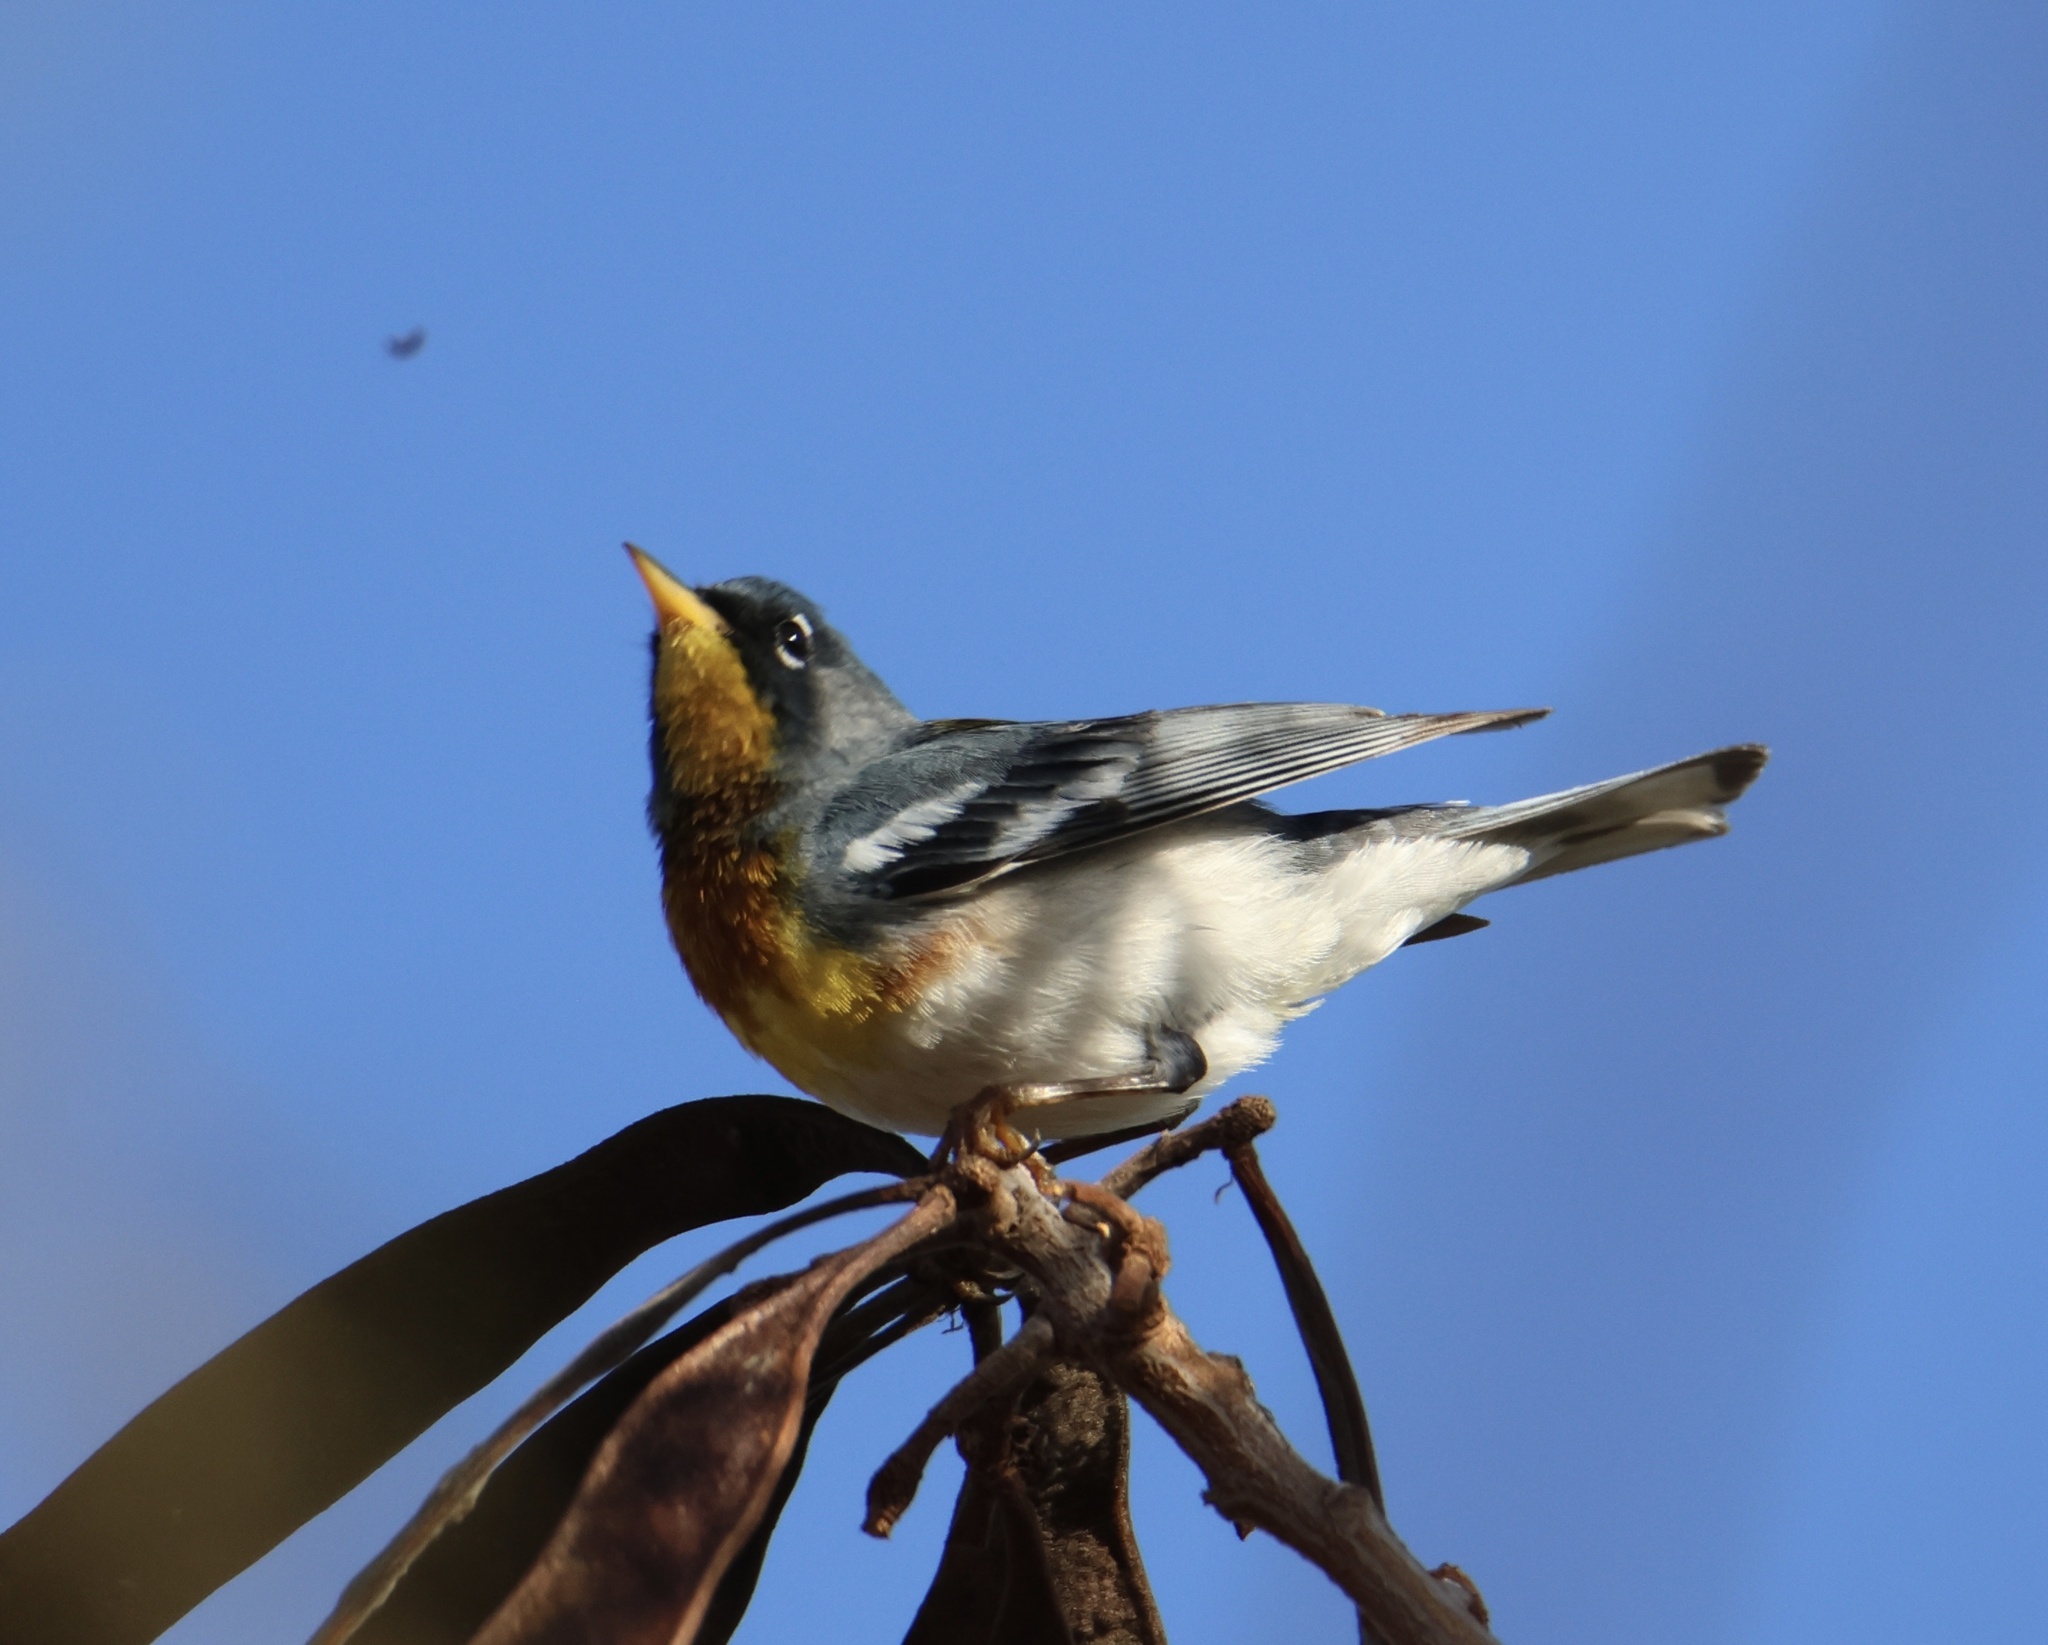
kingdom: Animalia
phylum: Chordata
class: Aves
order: Passeriformes
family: Parulidae
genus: Setophaga
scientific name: Setophaga americana
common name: Northern parula
